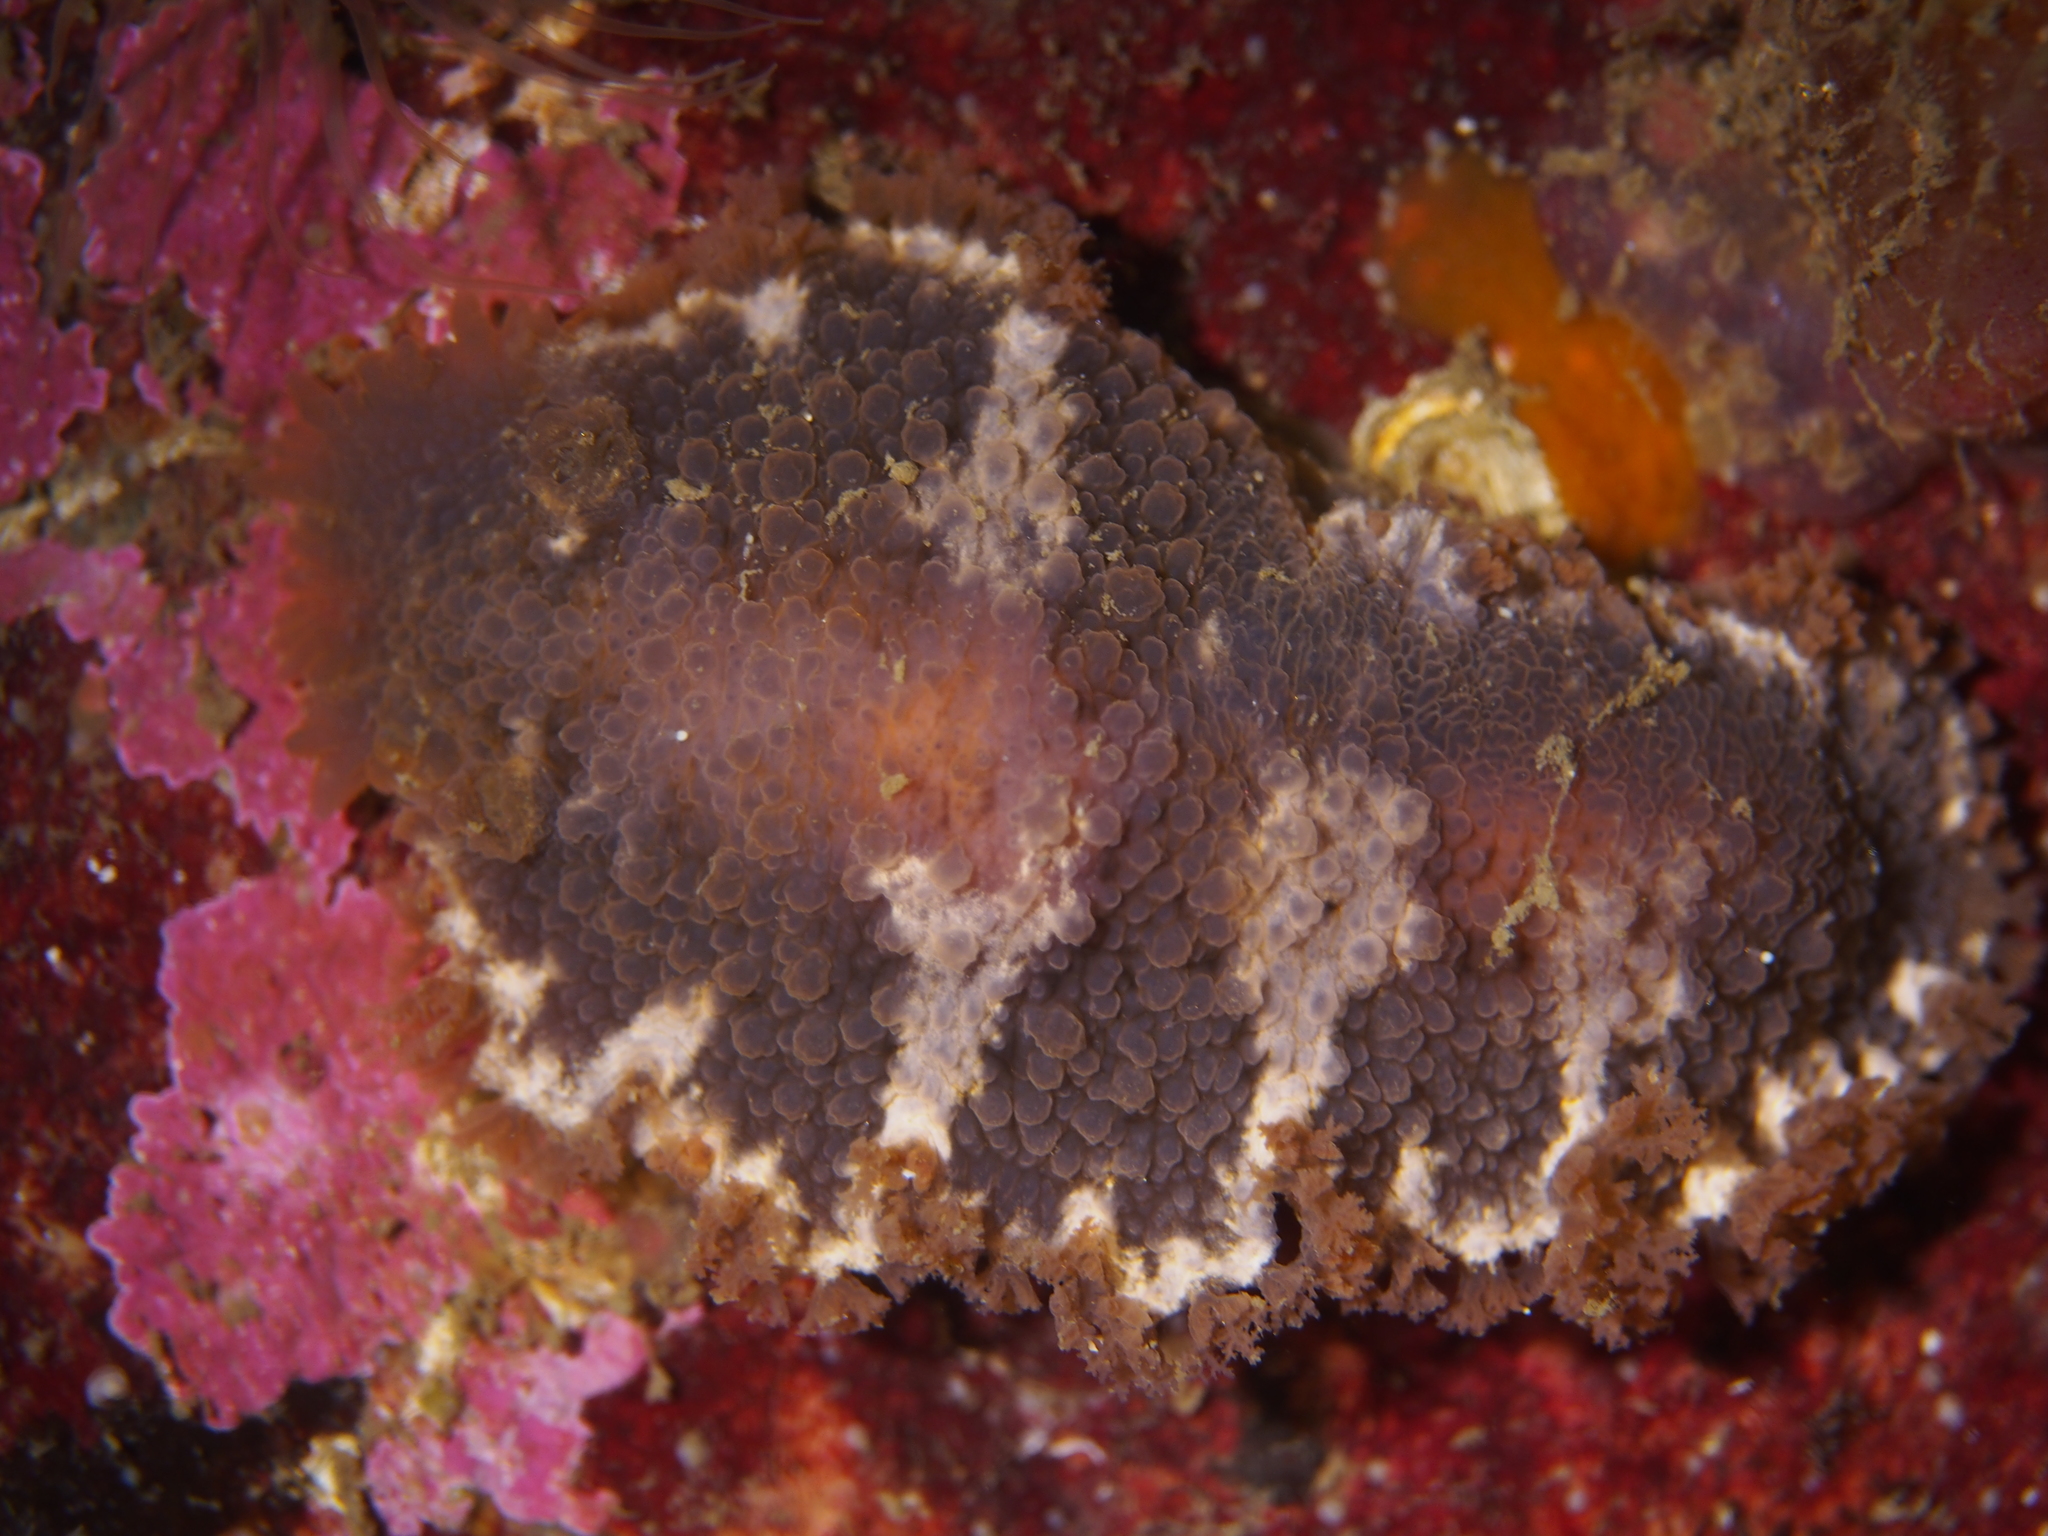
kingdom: Animalia
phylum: Mollusca
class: Gastropoda
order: Nudibranchia
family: Tritoniidae
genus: Tritonia
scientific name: Tritonia hombergii
